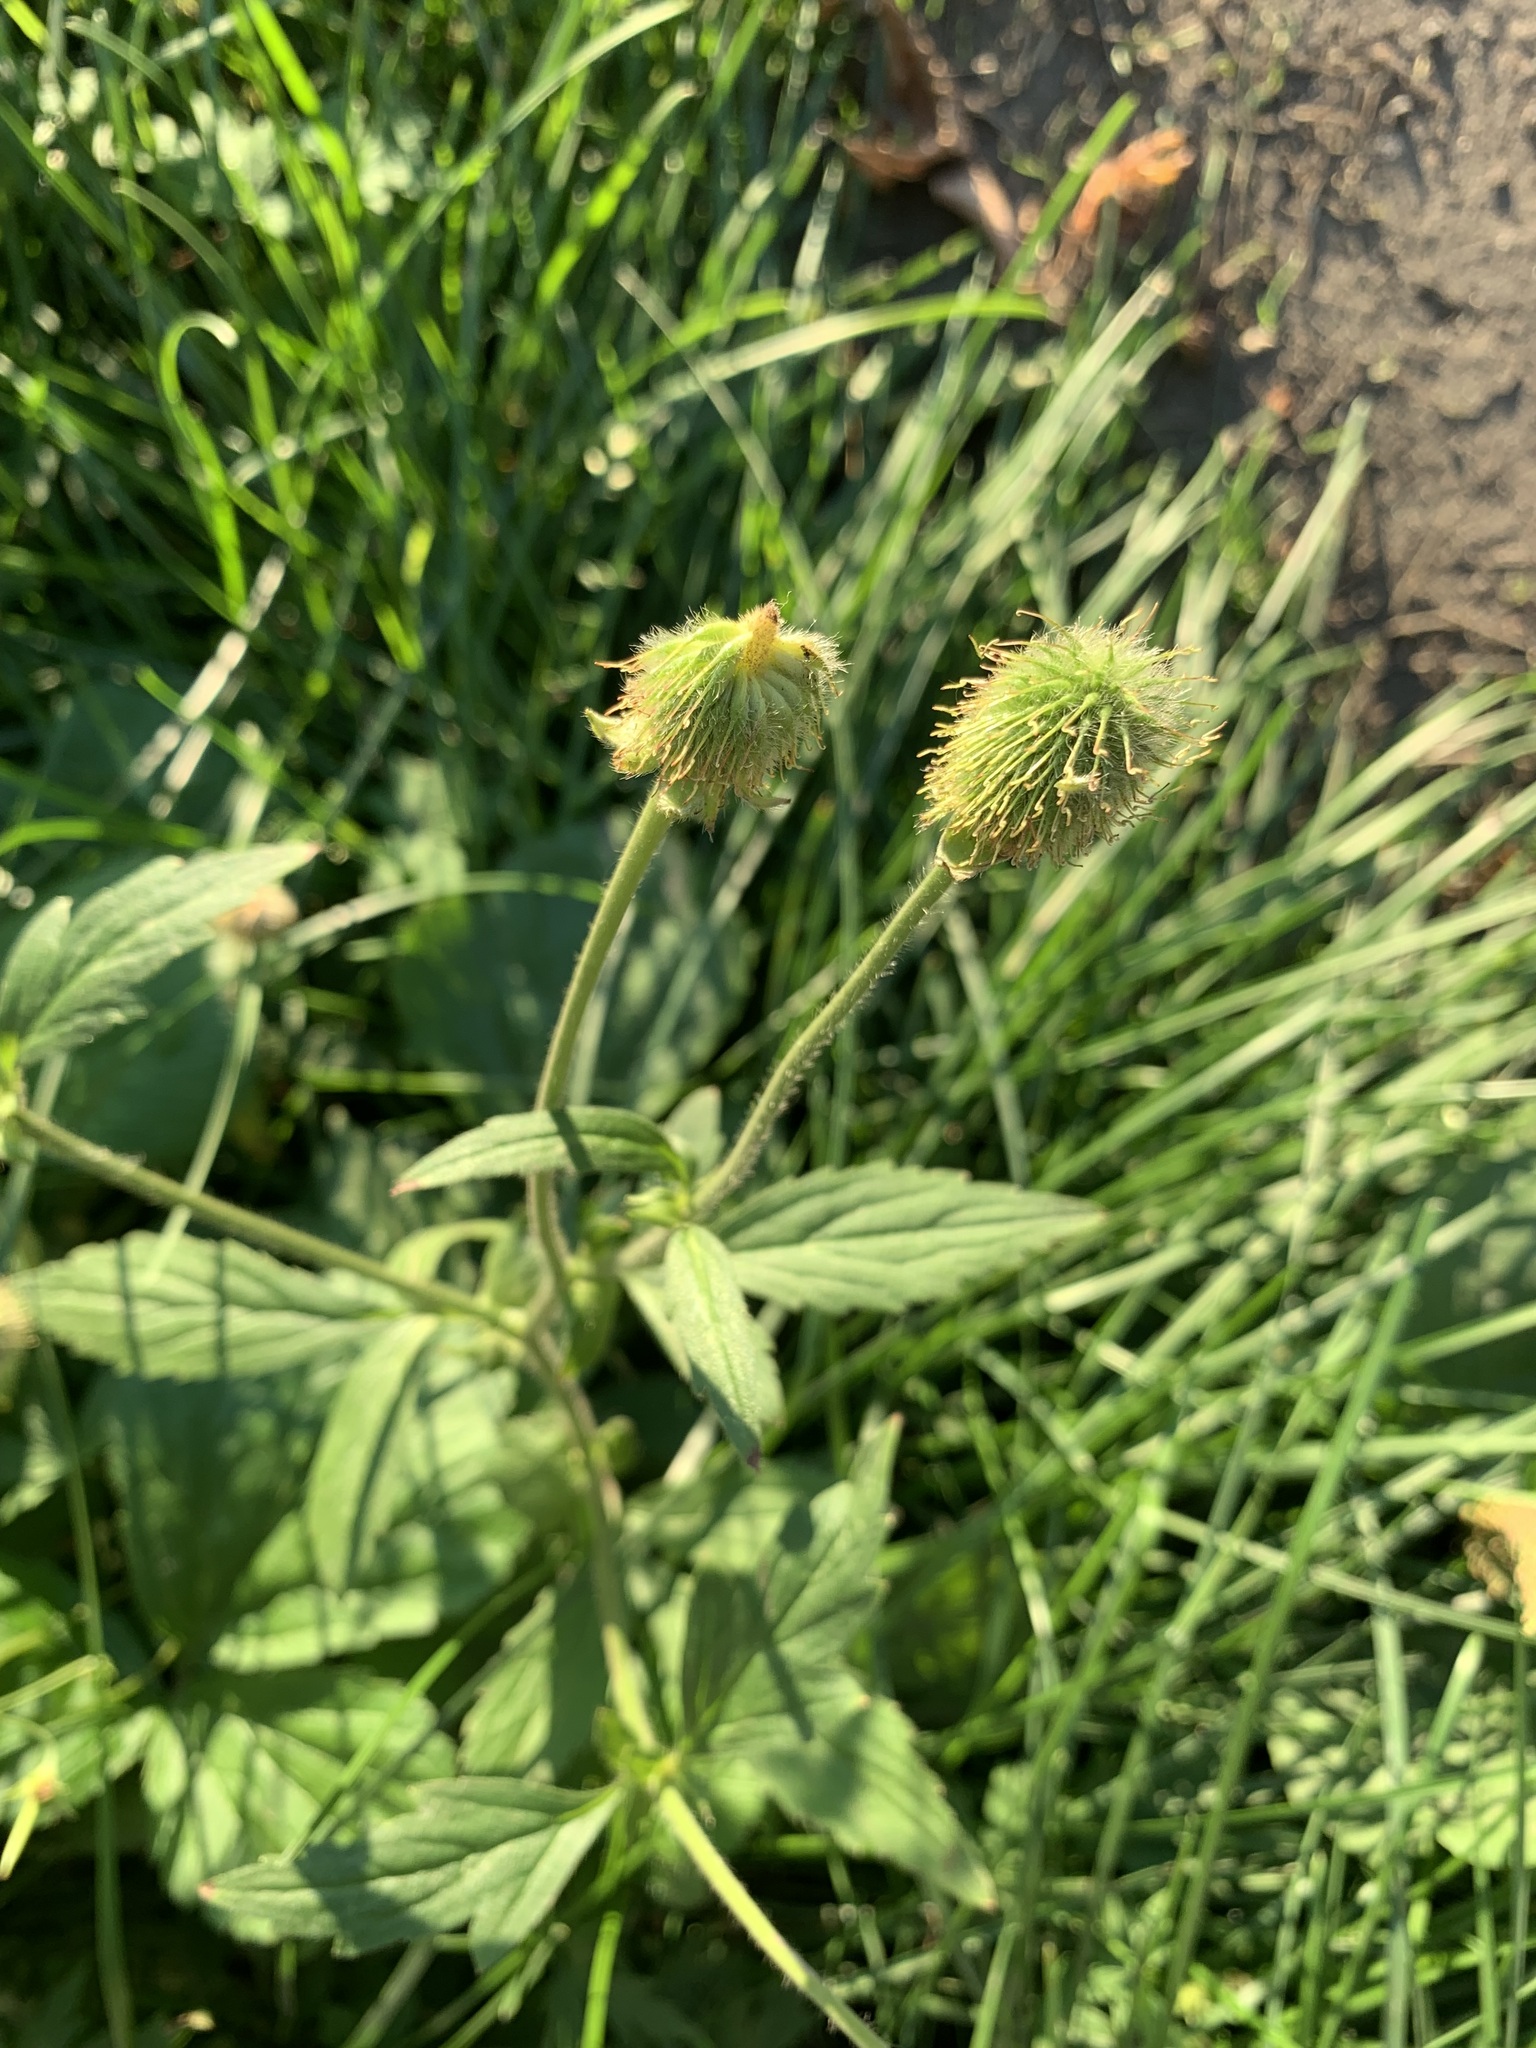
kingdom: Plantae
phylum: Tracheophyta
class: Magnoliopsida
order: Rosales
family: Rosaceae
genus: Geum
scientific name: Geum aleppicum
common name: Yellow avens
